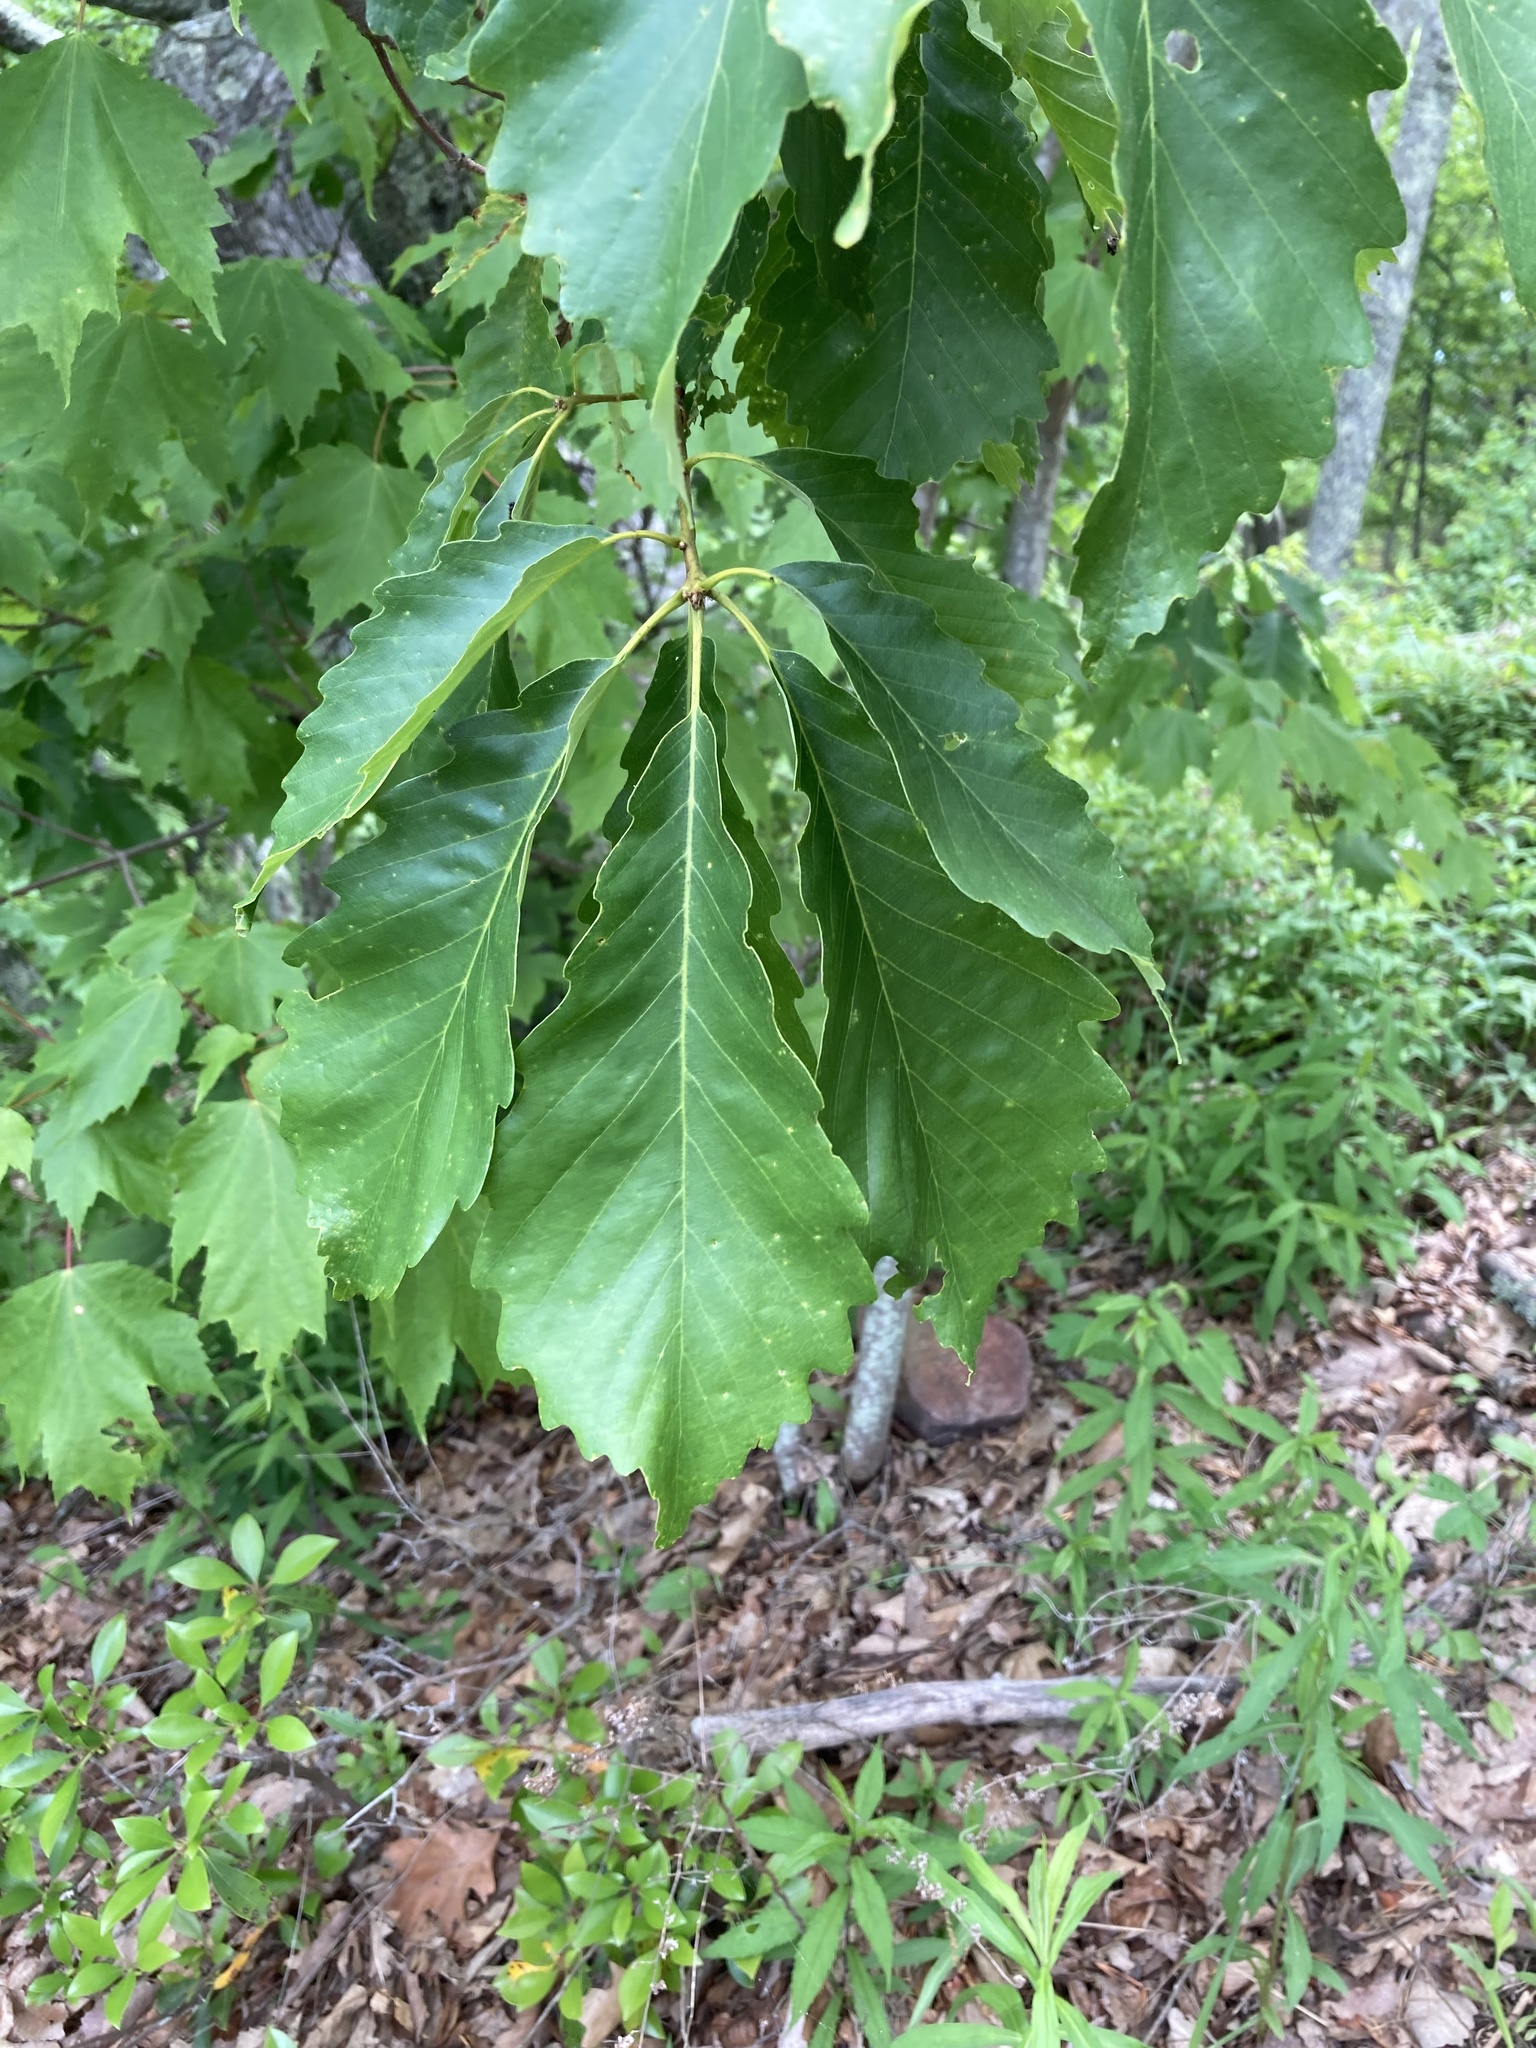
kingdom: Plantae
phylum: Tracheophyta
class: Magnoliopsida
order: Fagales
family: Fagaceae
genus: Quercus
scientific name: Quercus montana
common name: Chestnut oak
